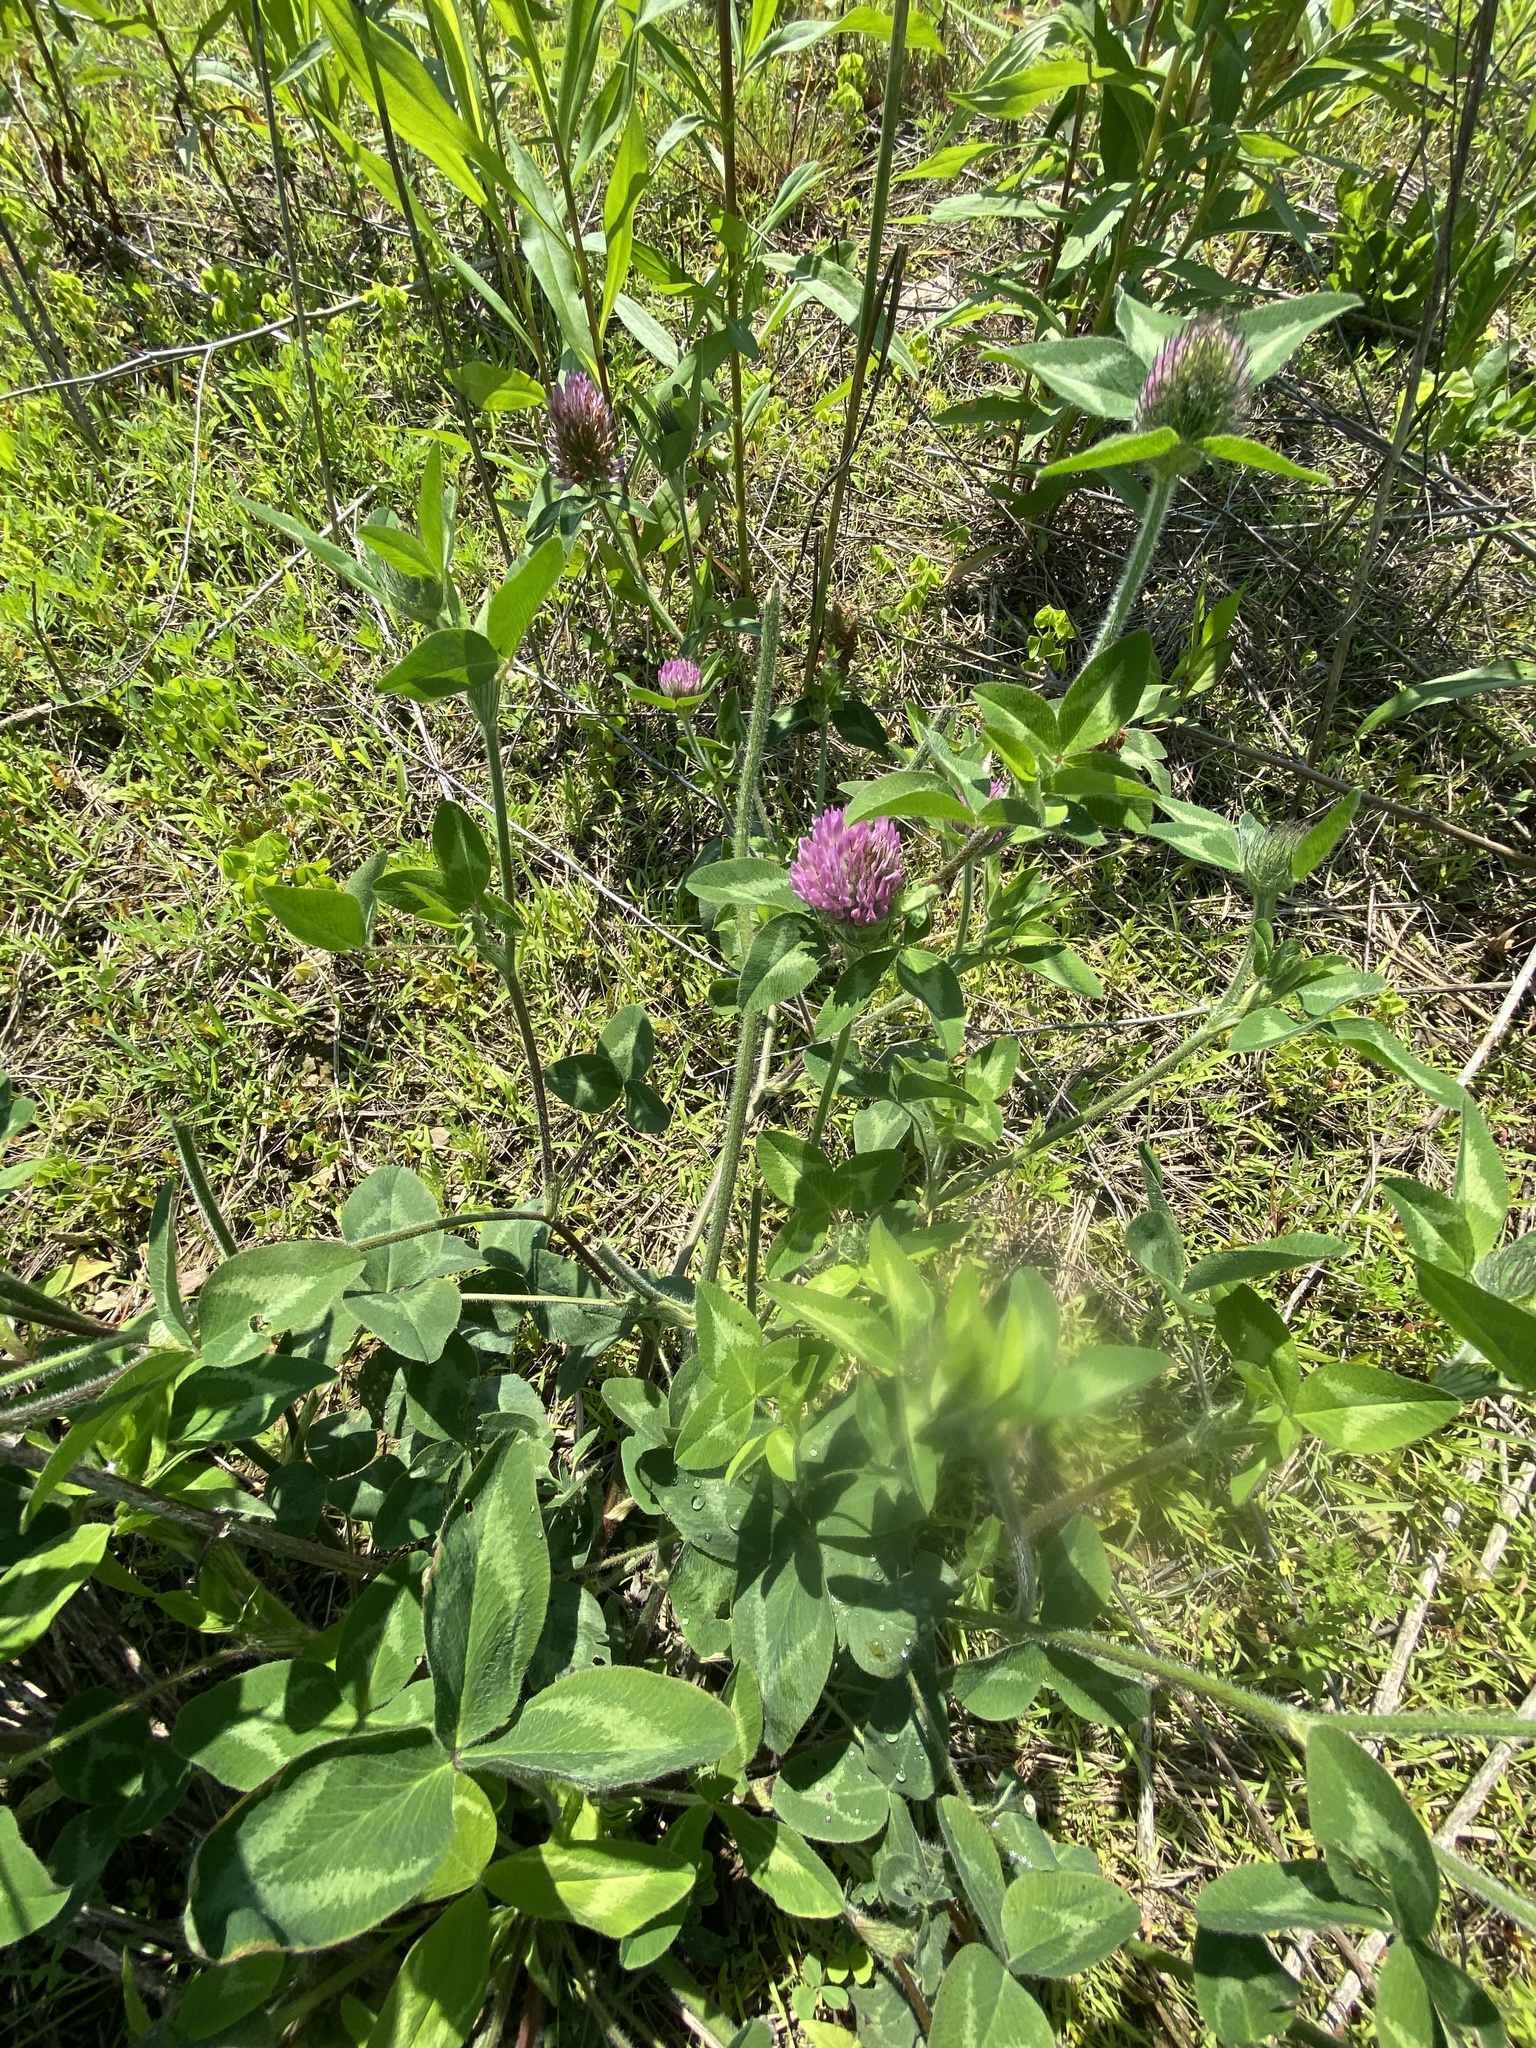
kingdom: Plantae
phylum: Tracheophyta
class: Magnoliopsida
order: Fabales
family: Fabaceae
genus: Trifolium
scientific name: Trifolium pratense
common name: Red clover
